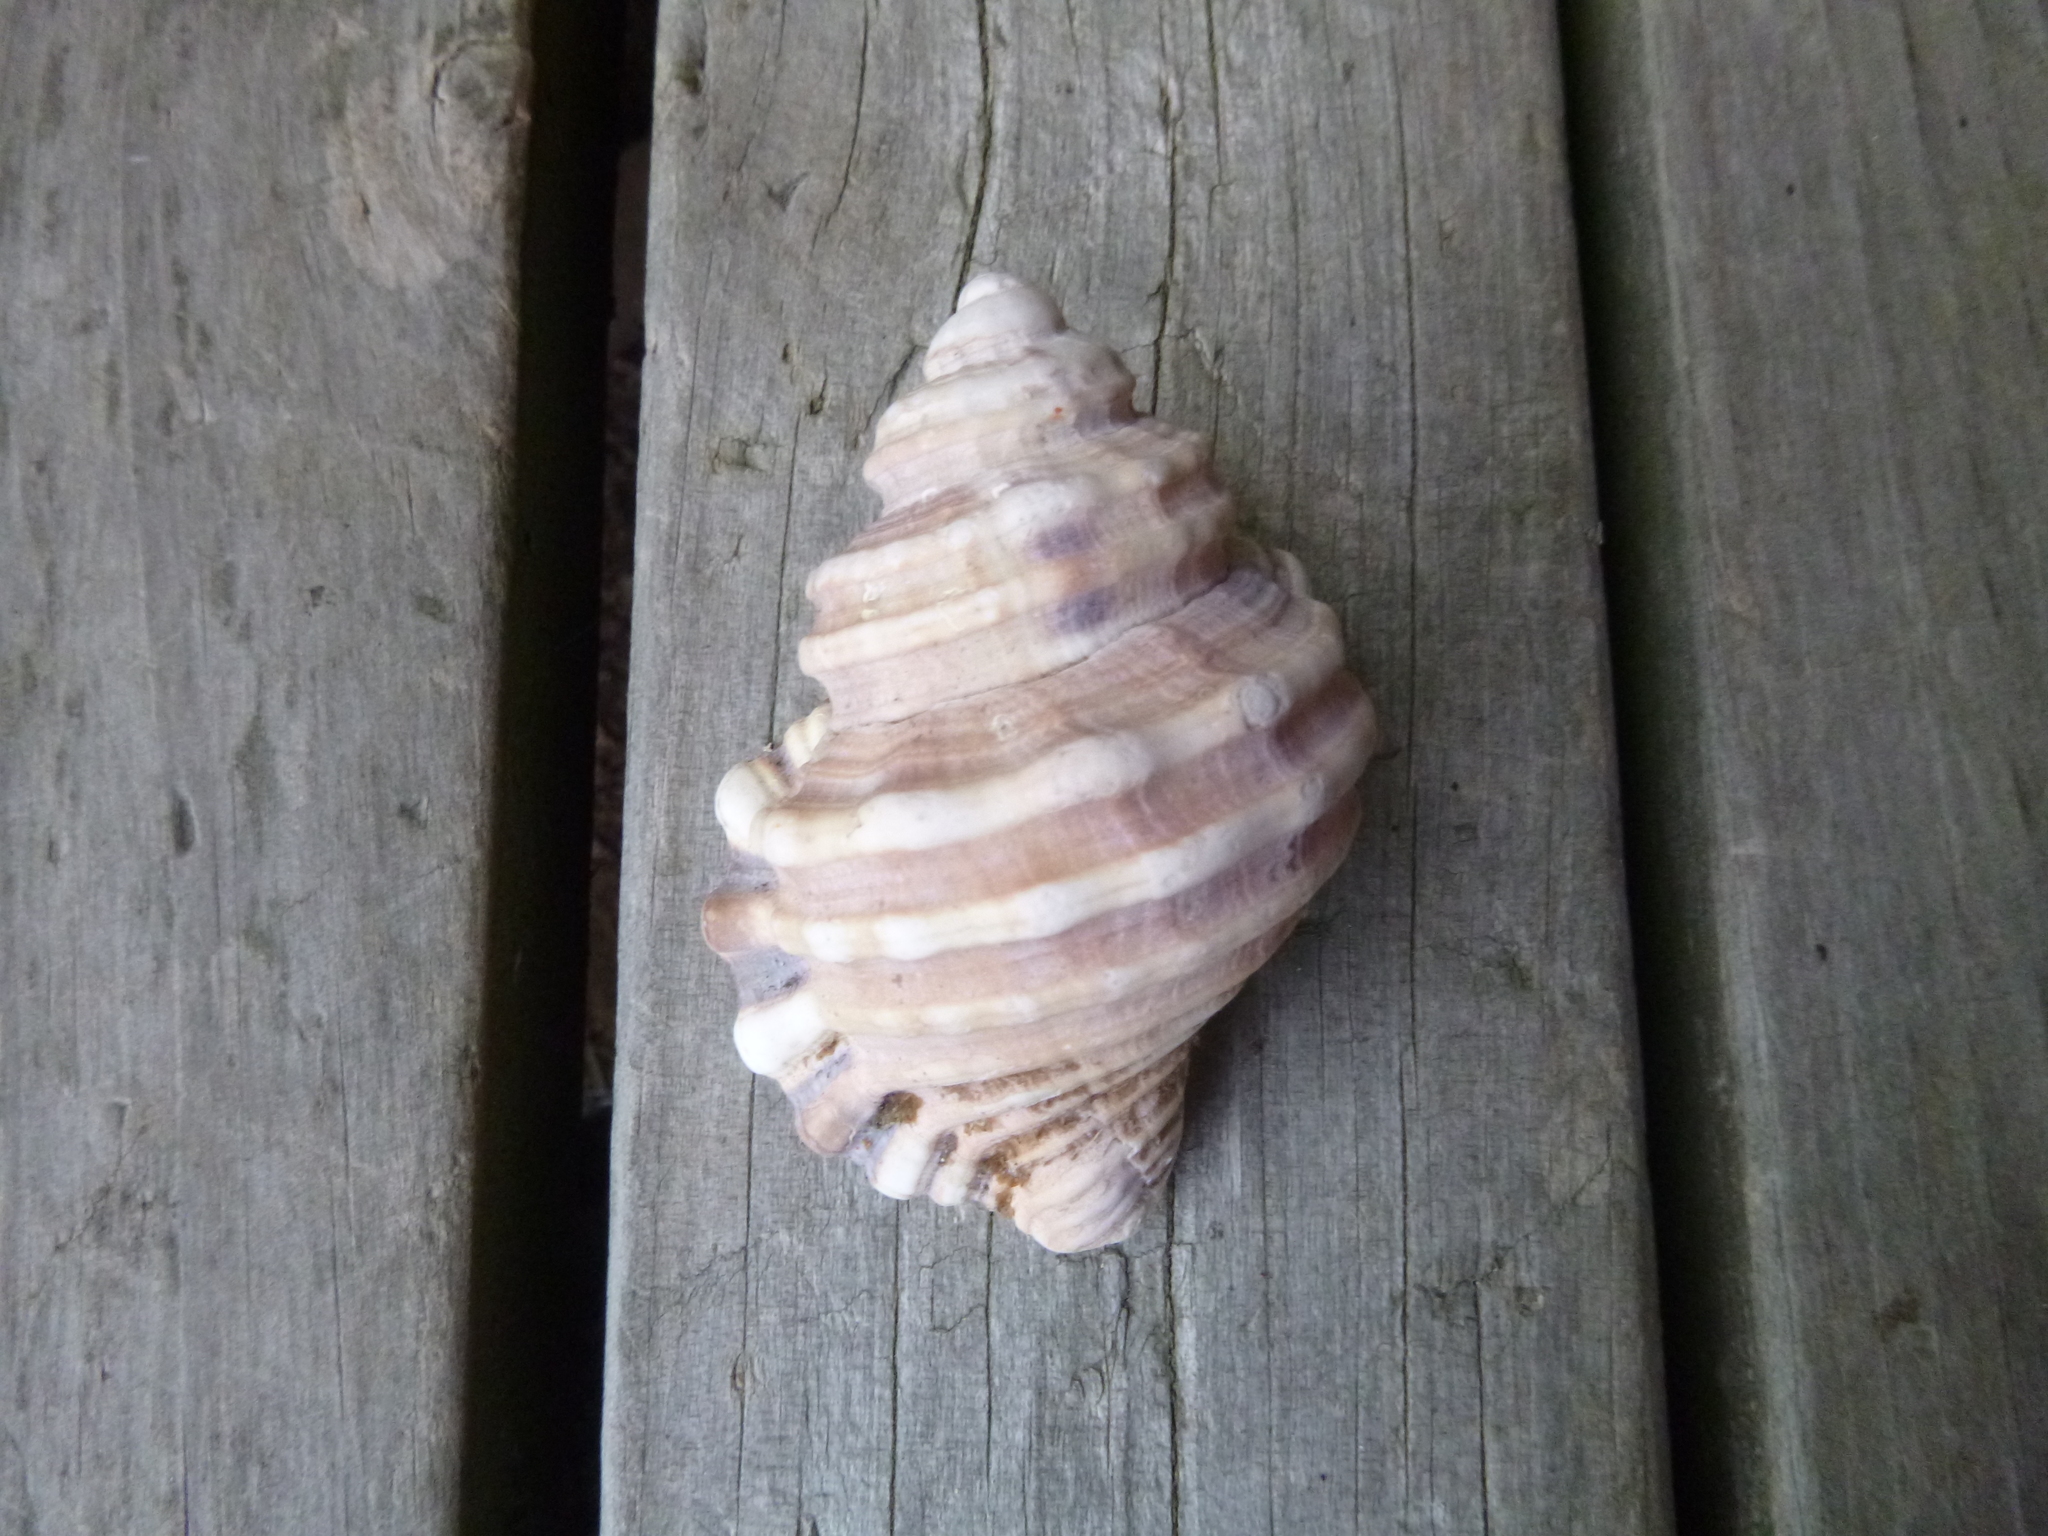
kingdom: Animalia
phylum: Mollusca
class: Gastropoda
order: Littorinimorpha
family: Cymatiidae
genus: Monoplex
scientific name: Monoplex parthenopeus
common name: Giant triton
